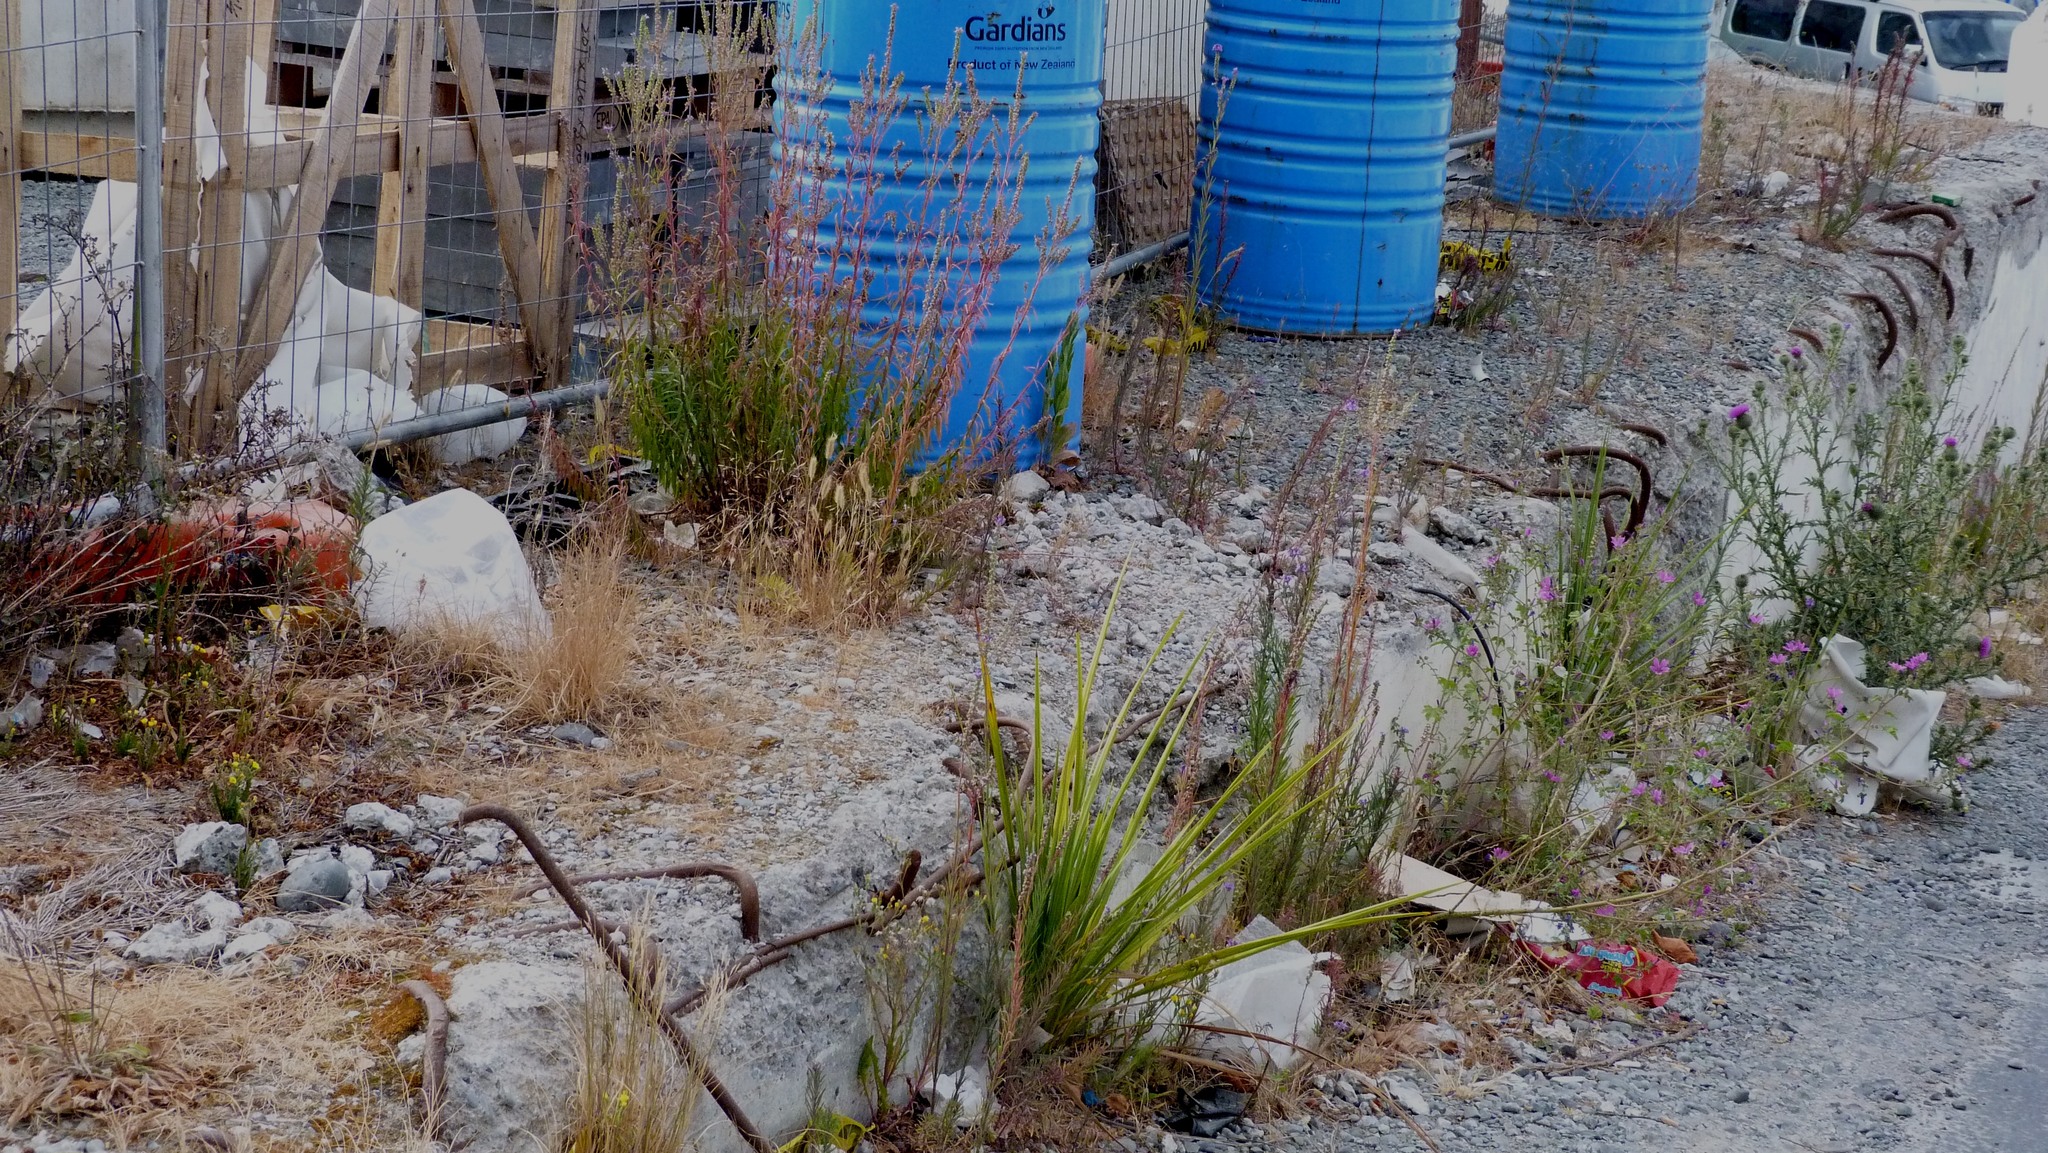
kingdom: Plantae
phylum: Tracheophyta
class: Liliopsida
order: Asparagales
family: Asparagaceae
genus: Cordyline
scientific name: Cordyline australis
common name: Cabbage-palm
